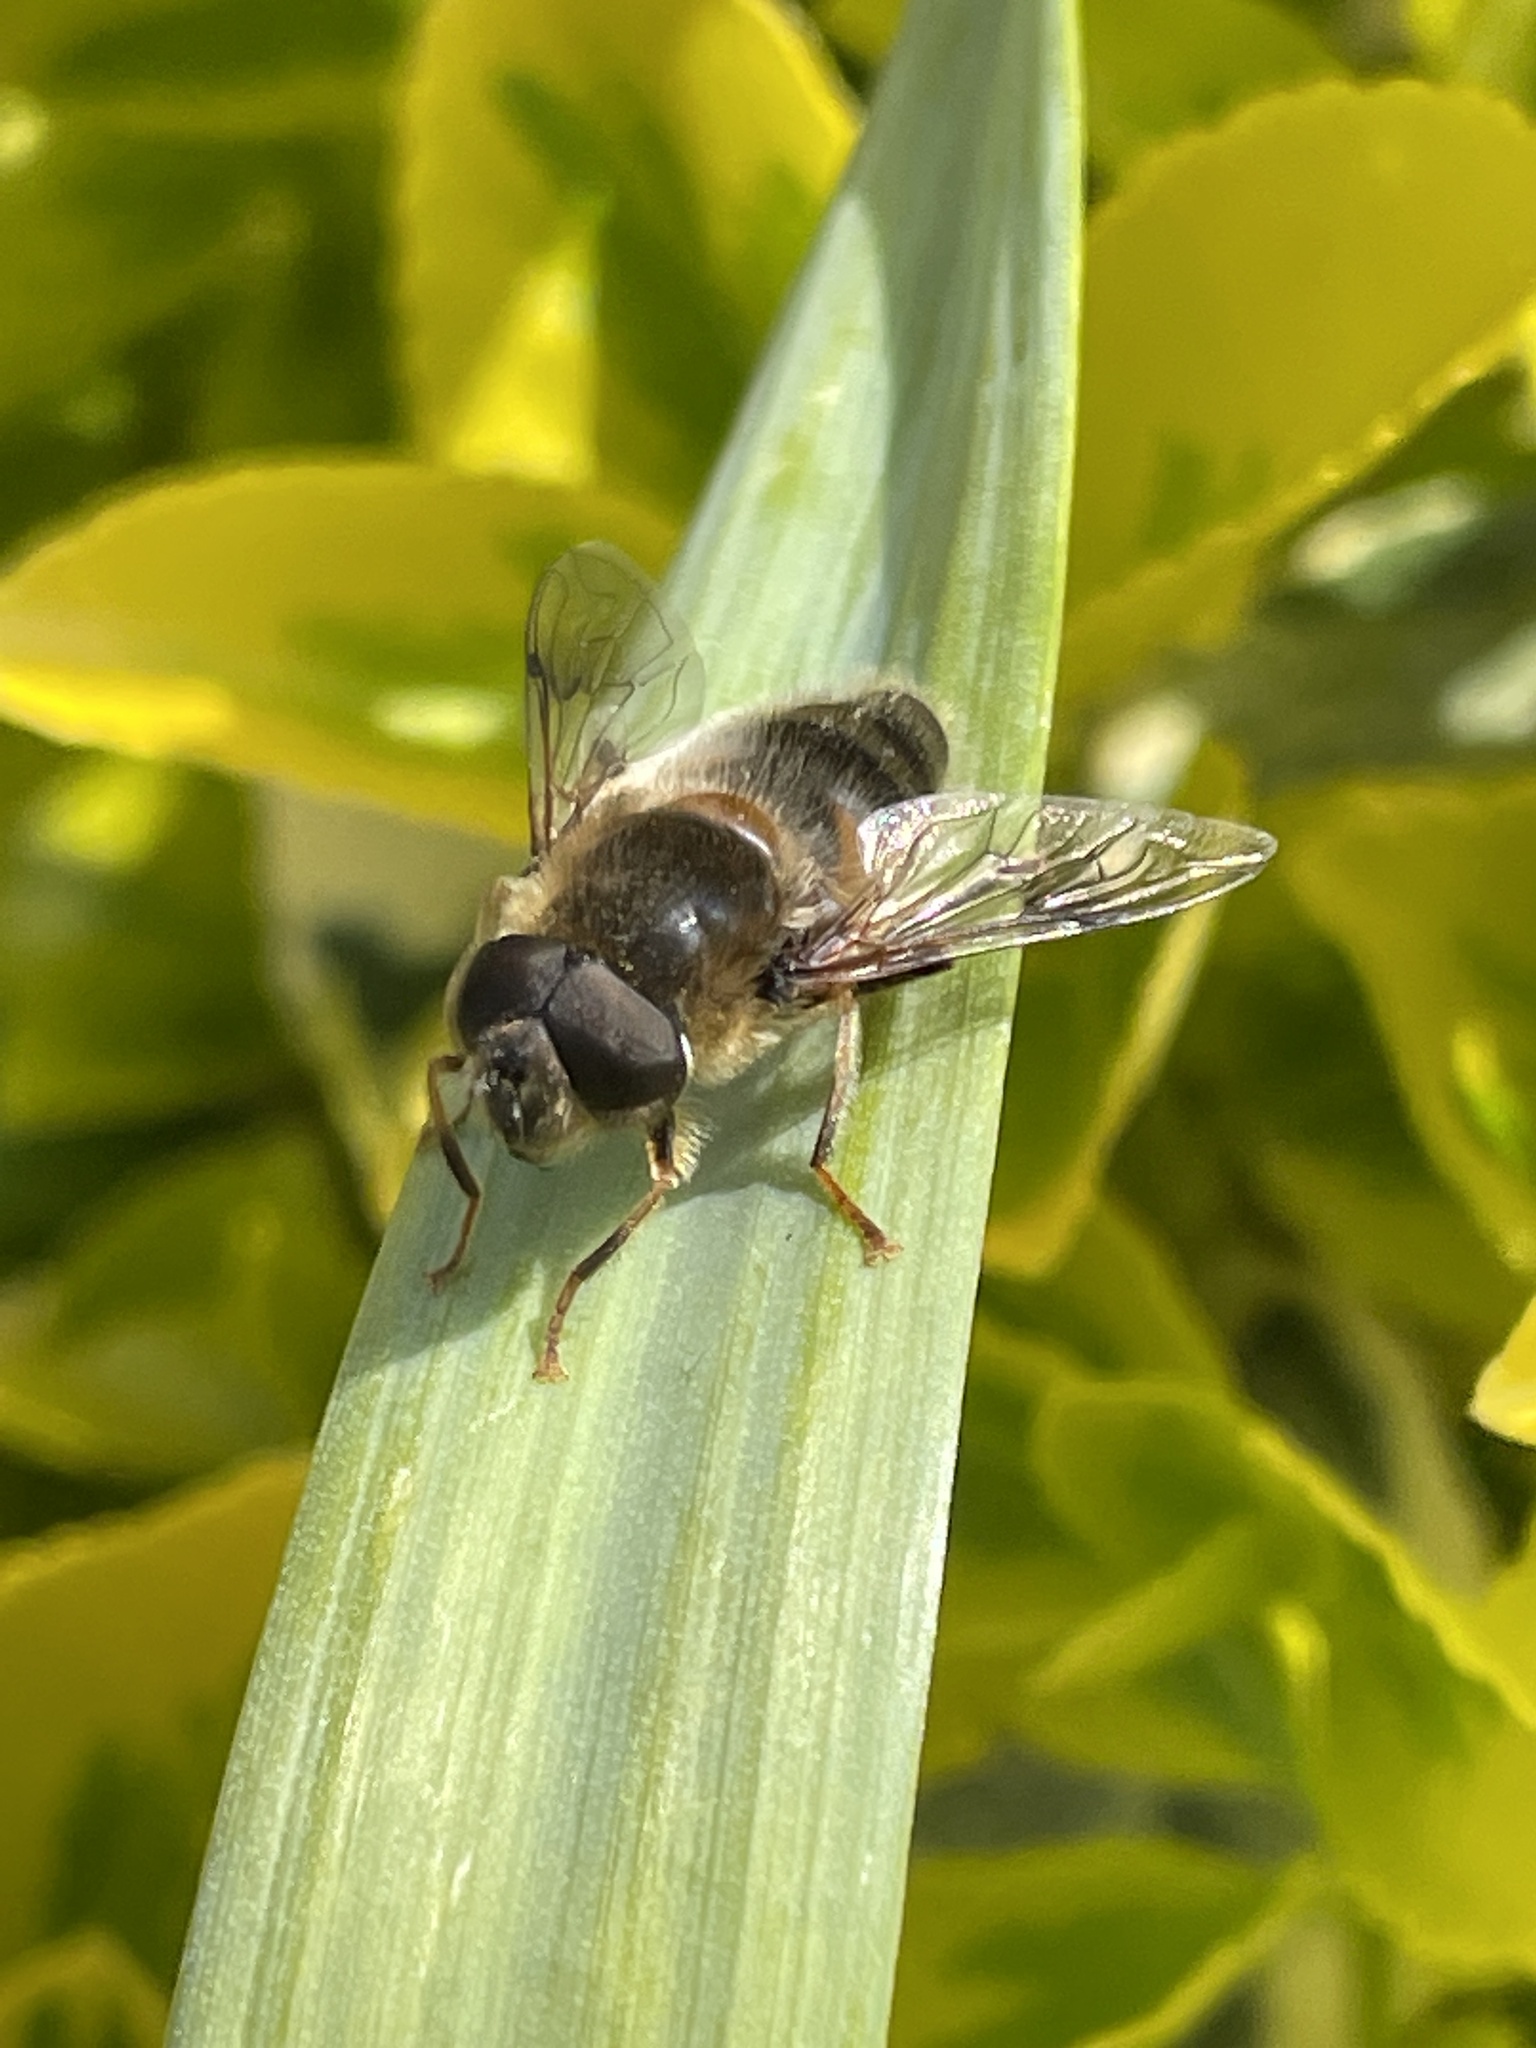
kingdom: Animalia
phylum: Arthropoda
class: Insecta
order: Diptera
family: Syrphidae
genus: Eristalis
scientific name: Eristalis pertinax
